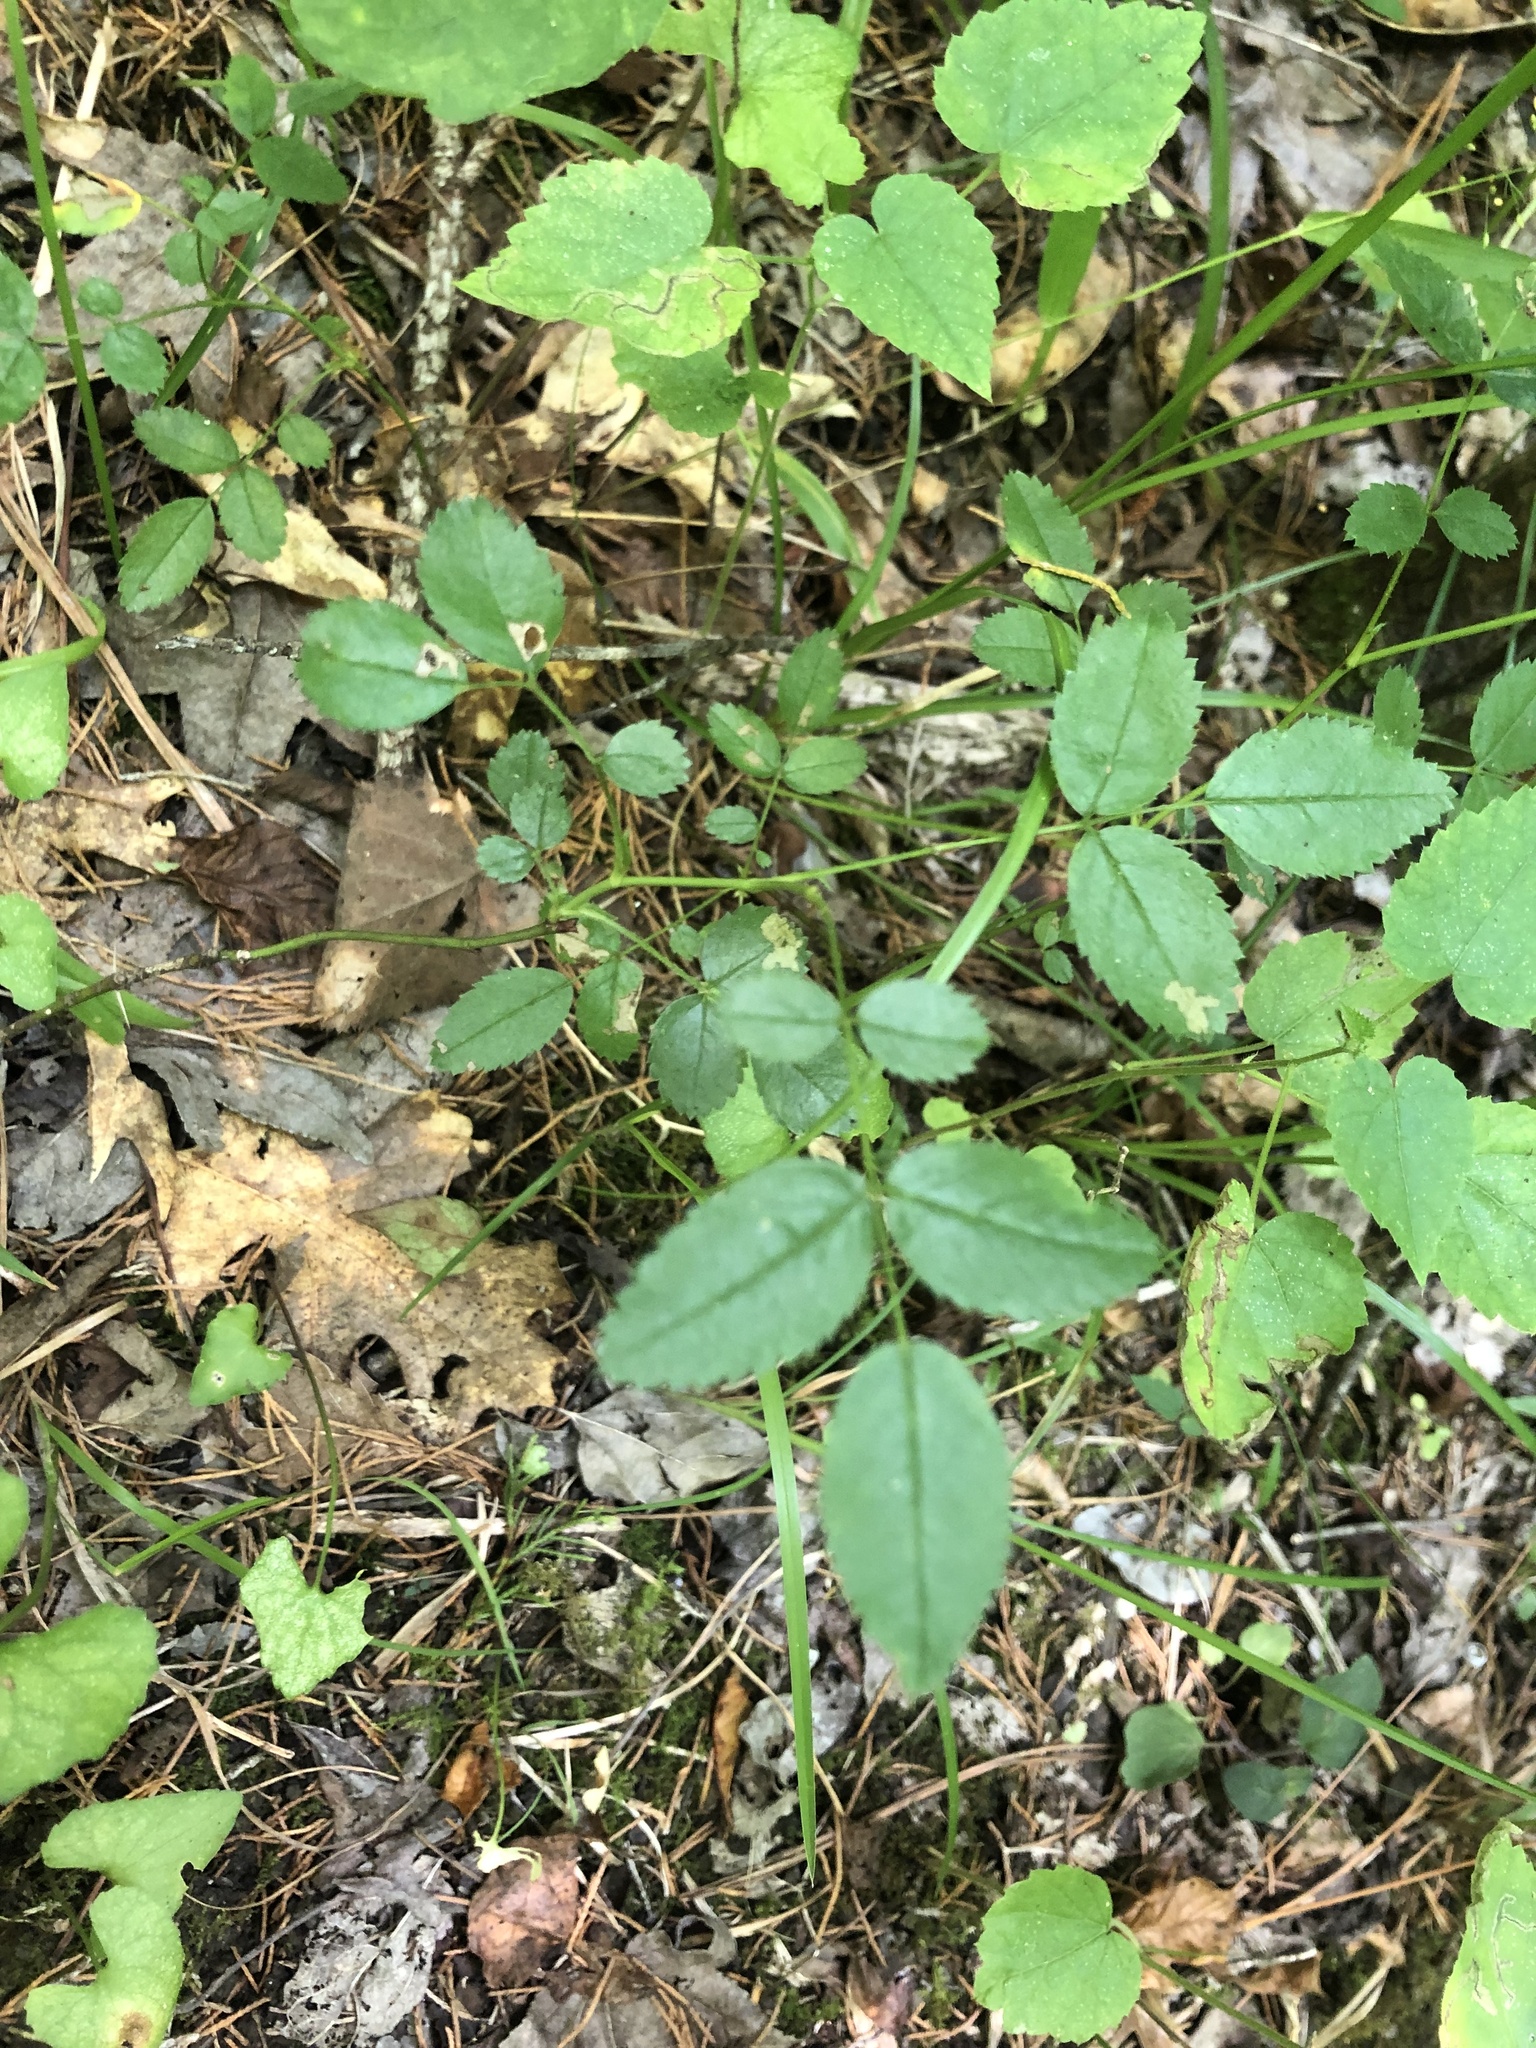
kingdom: Plantae
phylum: Tracheophyta
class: Magnoliopsida
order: Rosales
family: Rosaceae
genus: Rosa
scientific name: Rosa carolina
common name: Pasture rose
